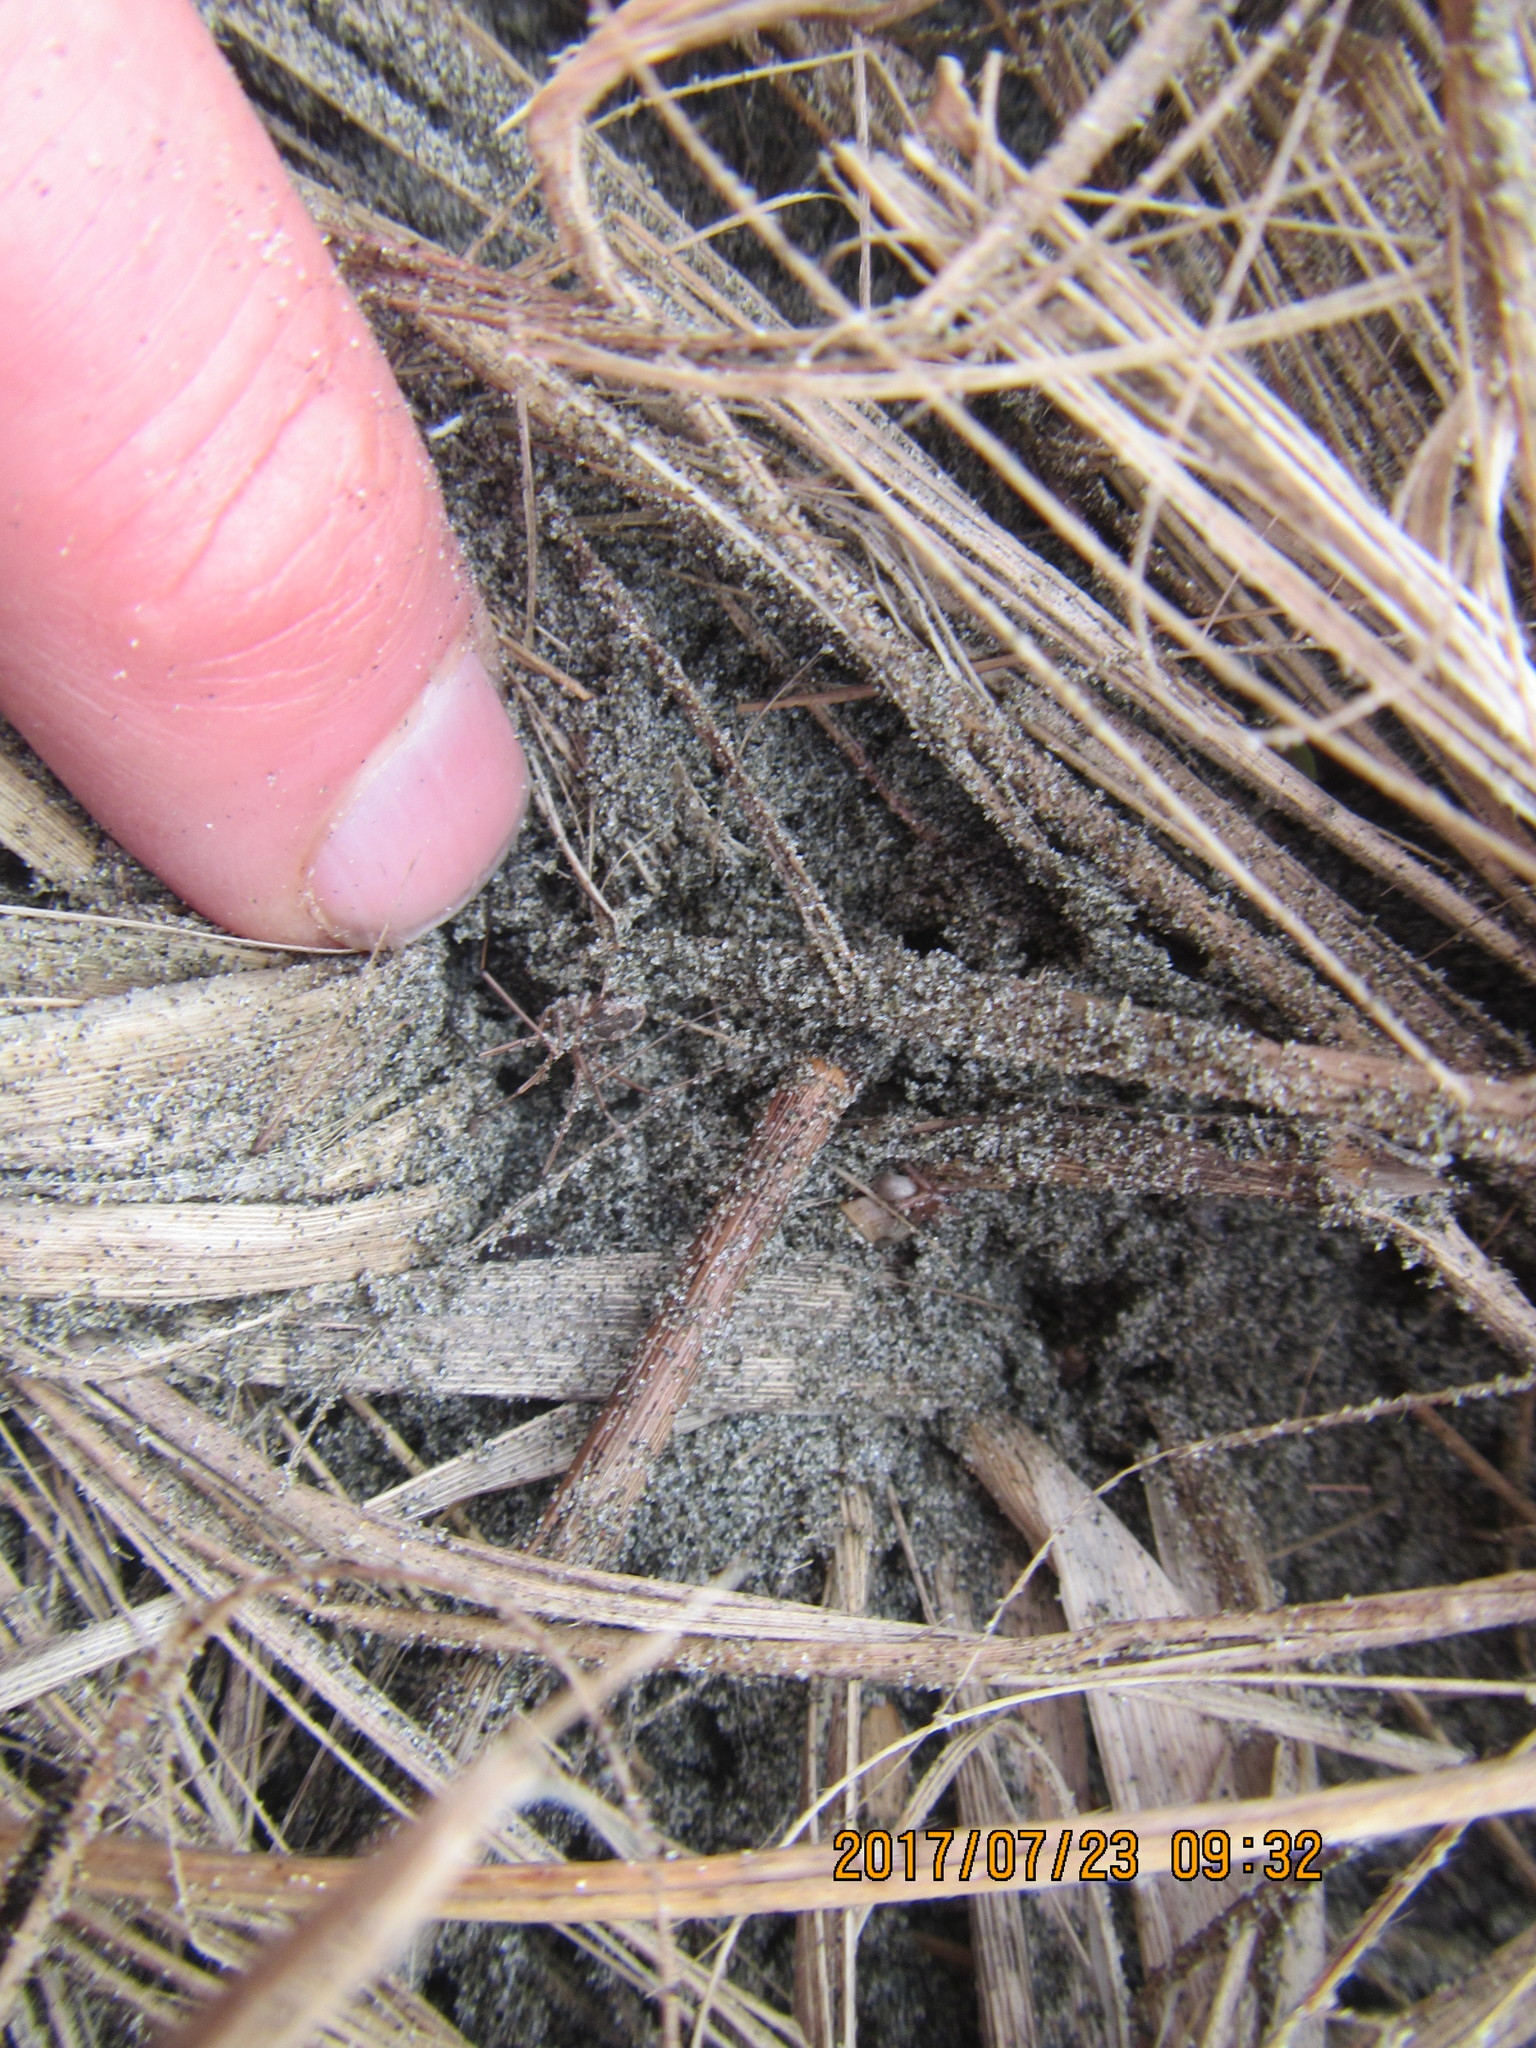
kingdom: Animalia
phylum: Arthropoda
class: Arachnida
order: Opiliones
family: Phalangiidae
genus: Phalangium
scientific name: Phalangium opilio
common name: Daddy longleg
